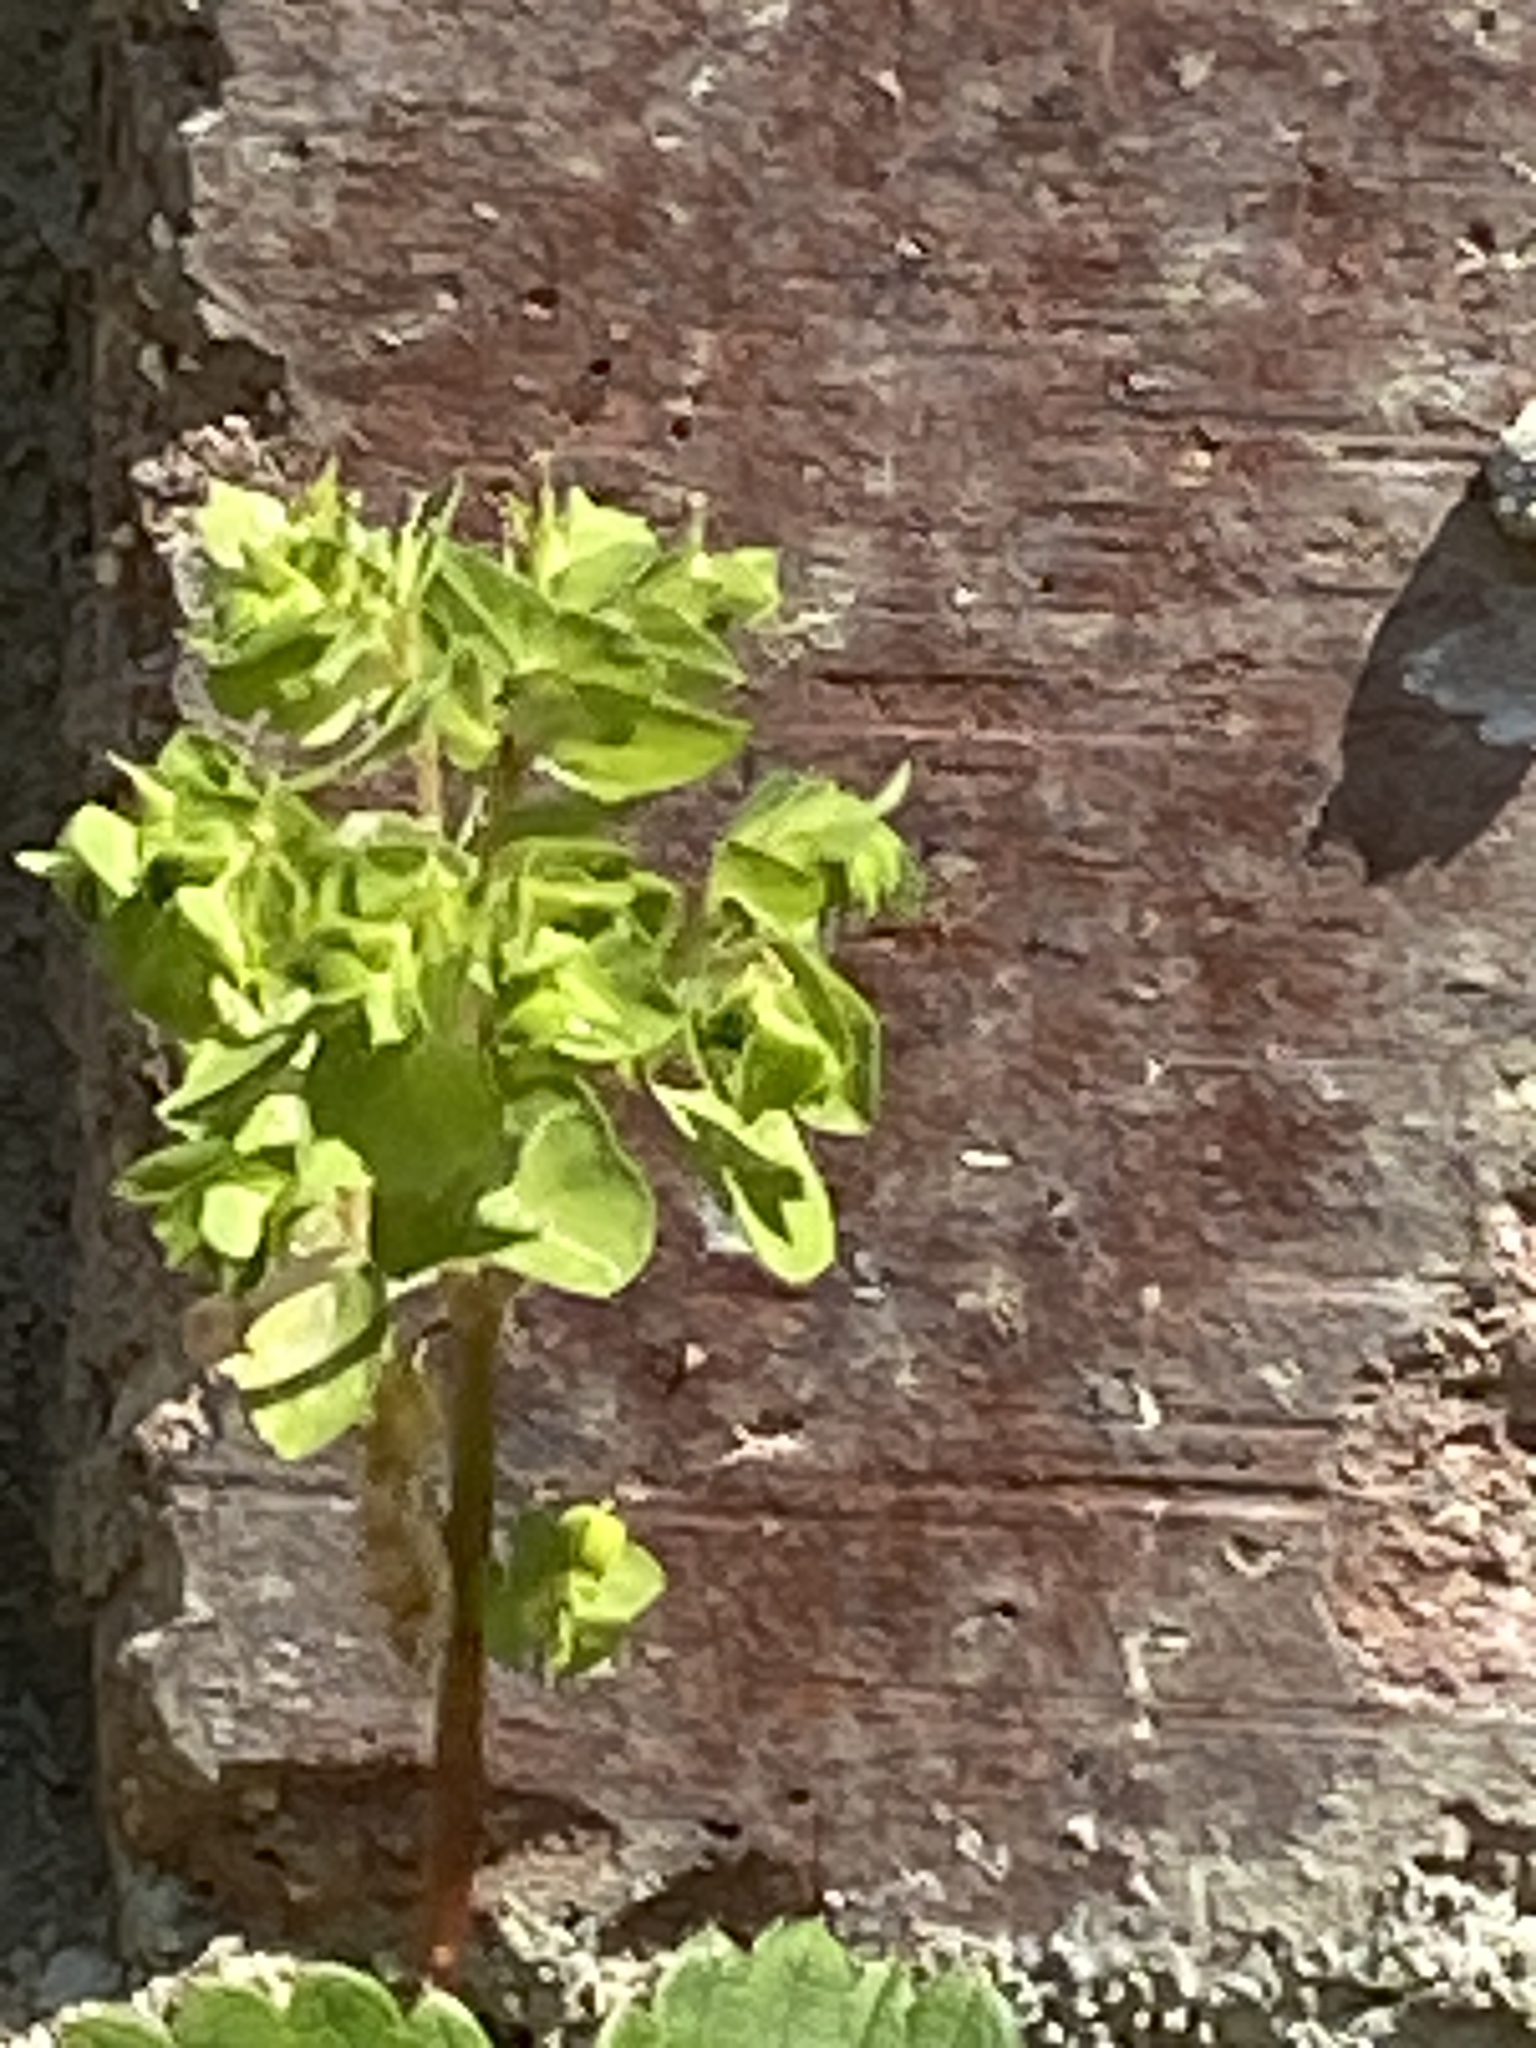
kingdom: Plantae
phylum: Tracheophyta
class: Magnoliopsida
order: Malpighiales
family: Euphorbiaceae
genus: Euphorbia
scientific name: Euphorbia peplus
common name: Petty spurge
